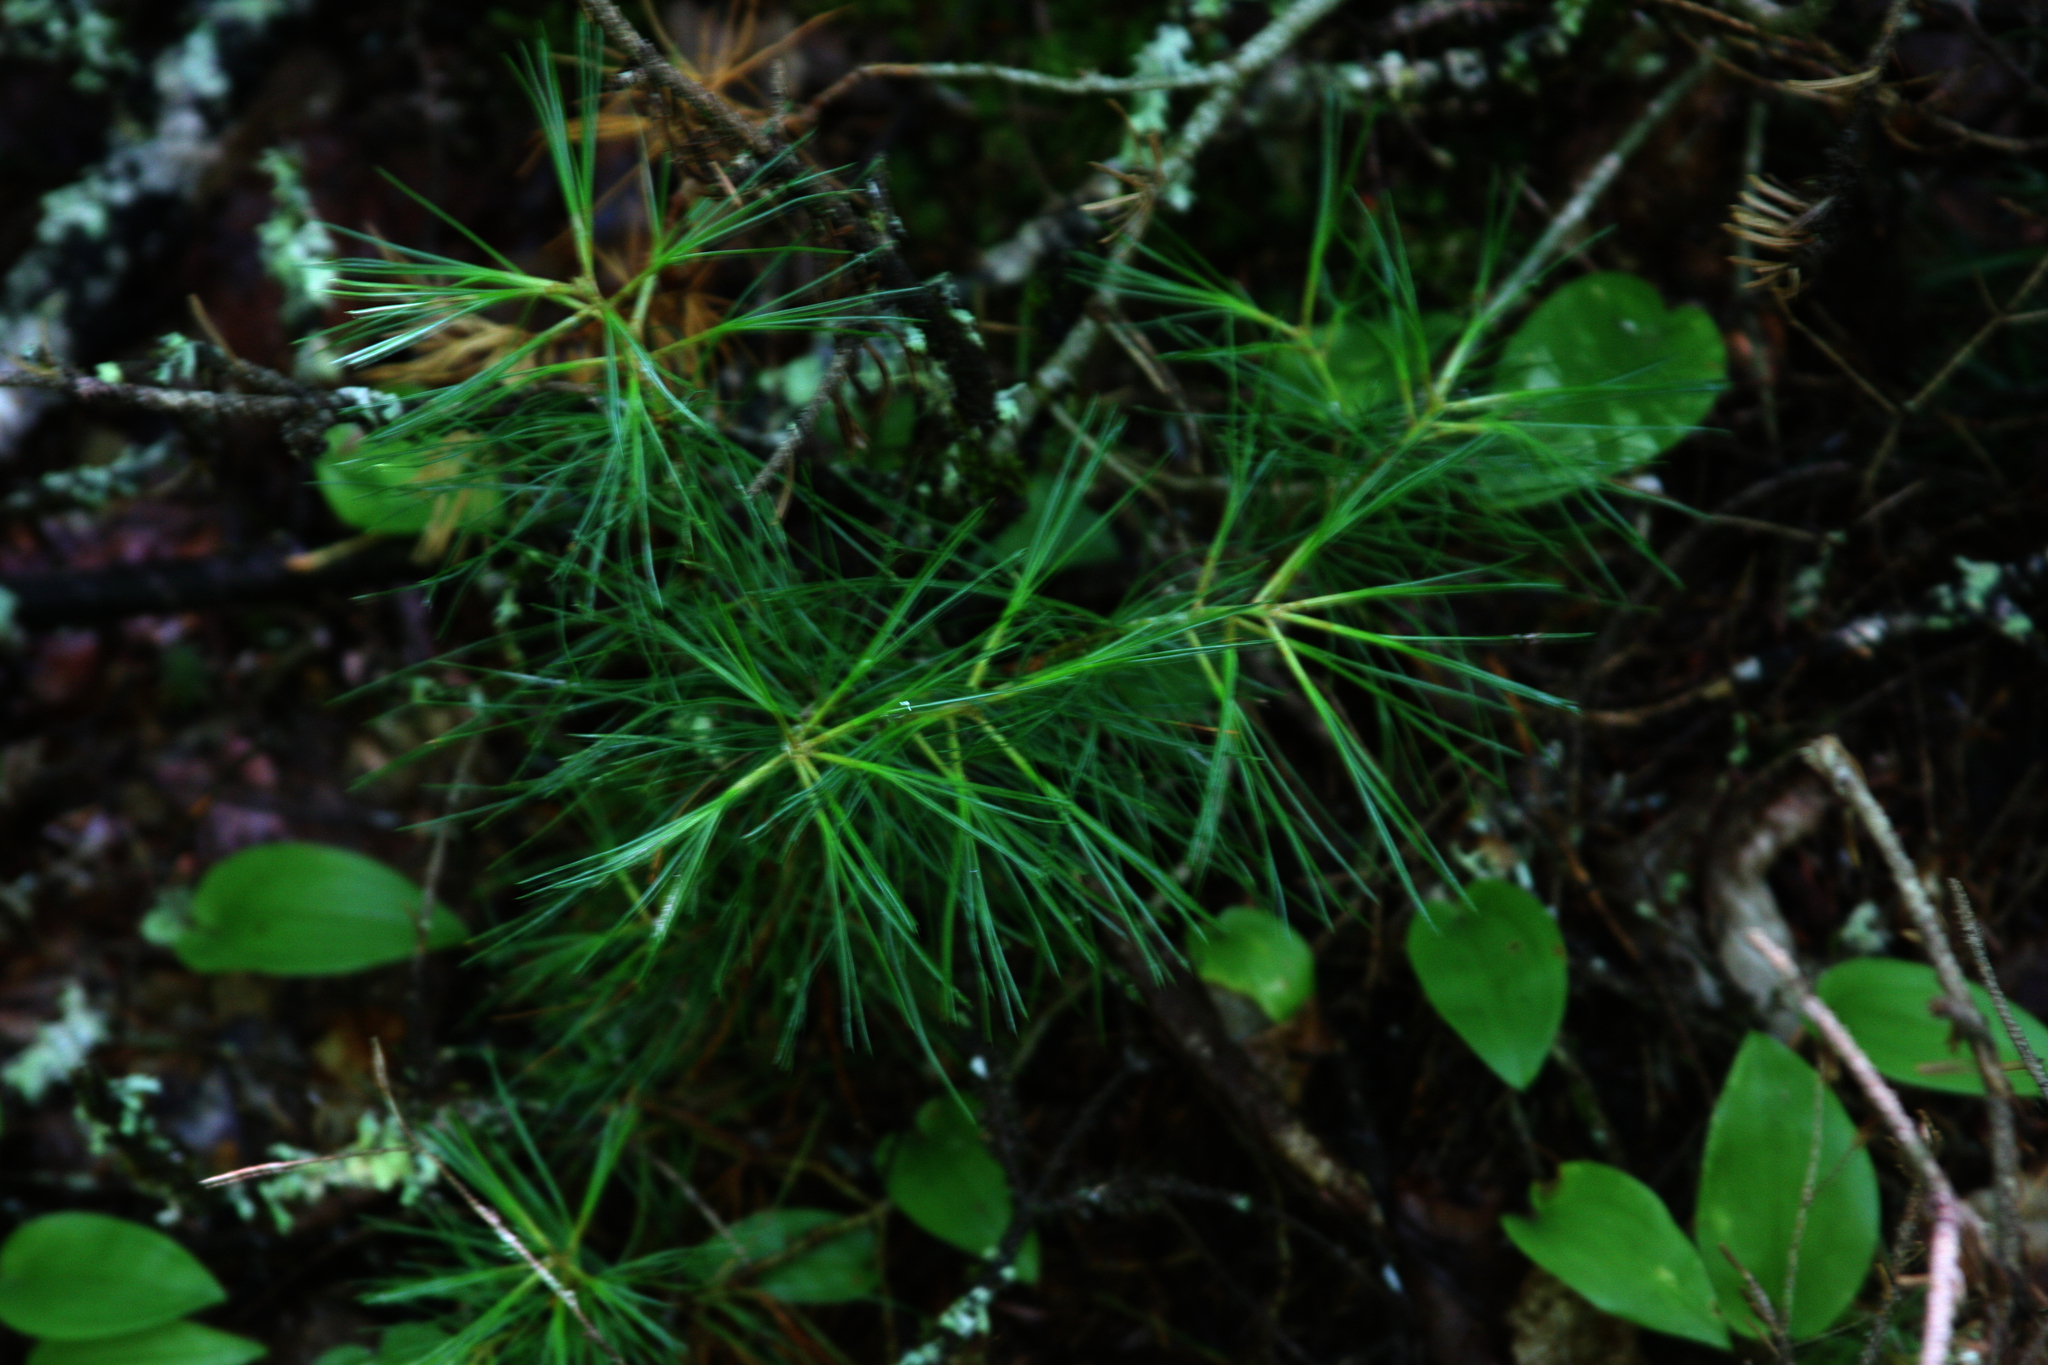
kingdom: Plantae
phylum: Tracheophyta
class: Pinopsida
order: Pinales
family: Pinaceae
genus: Pinus
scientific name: Pinus strobus
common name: Weymouth pine
